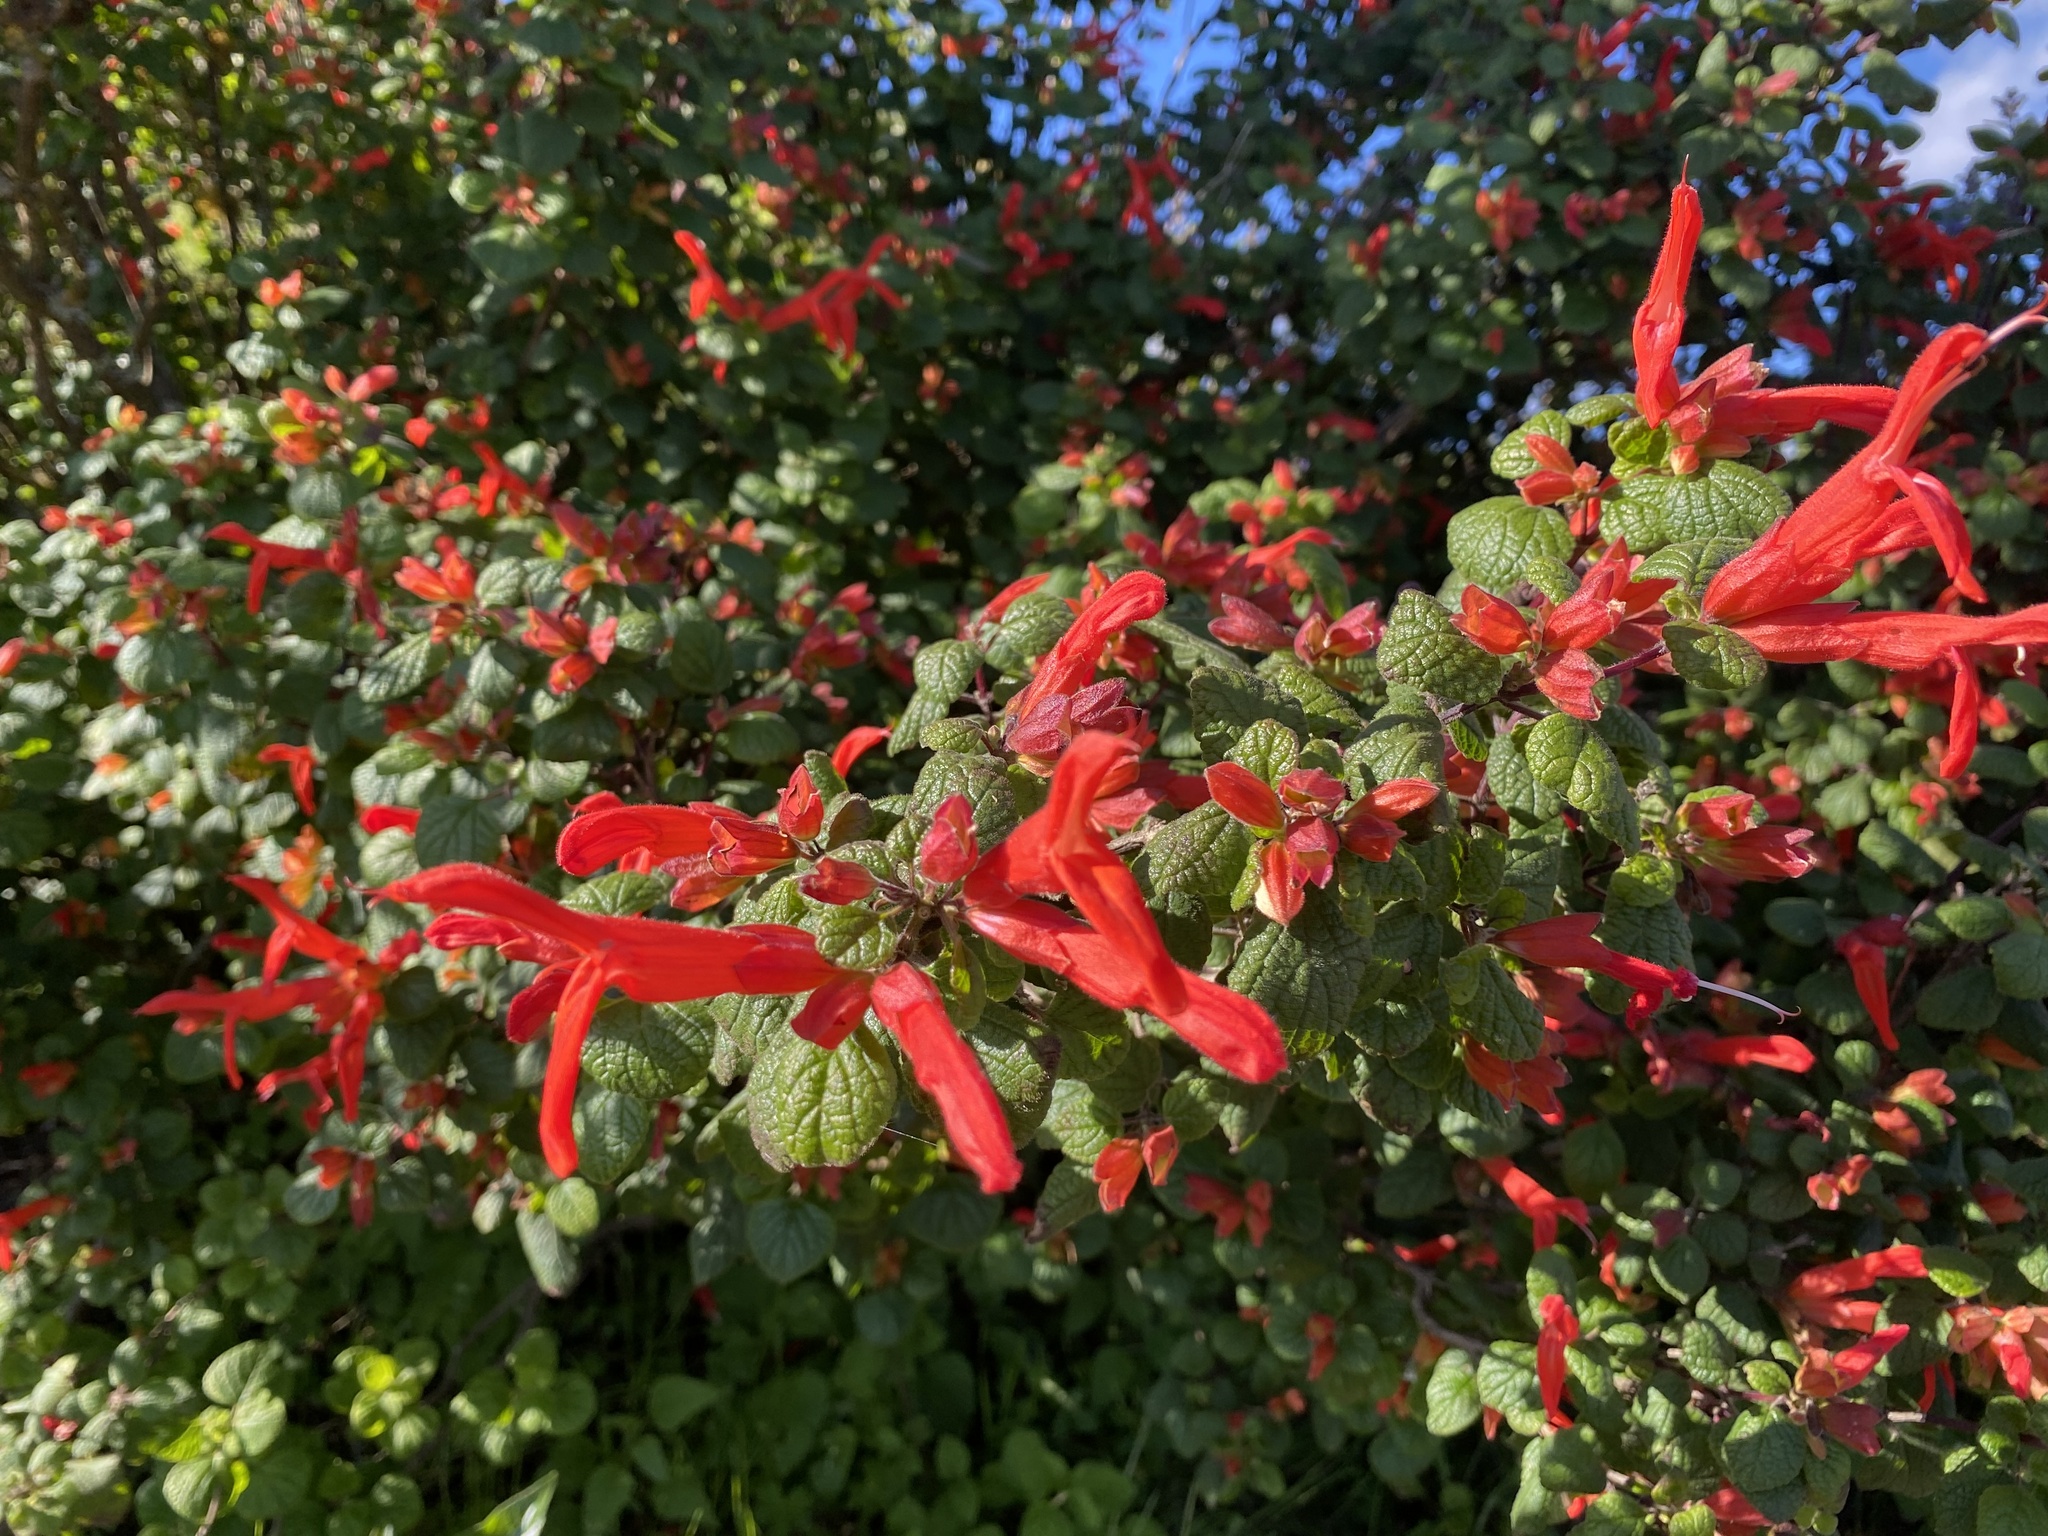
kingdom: Plantae
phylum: Tracheophyta
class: Magnoliopsida
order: Lamiales
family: Lamiaceae
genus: Salvia
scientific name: Salvia regla
